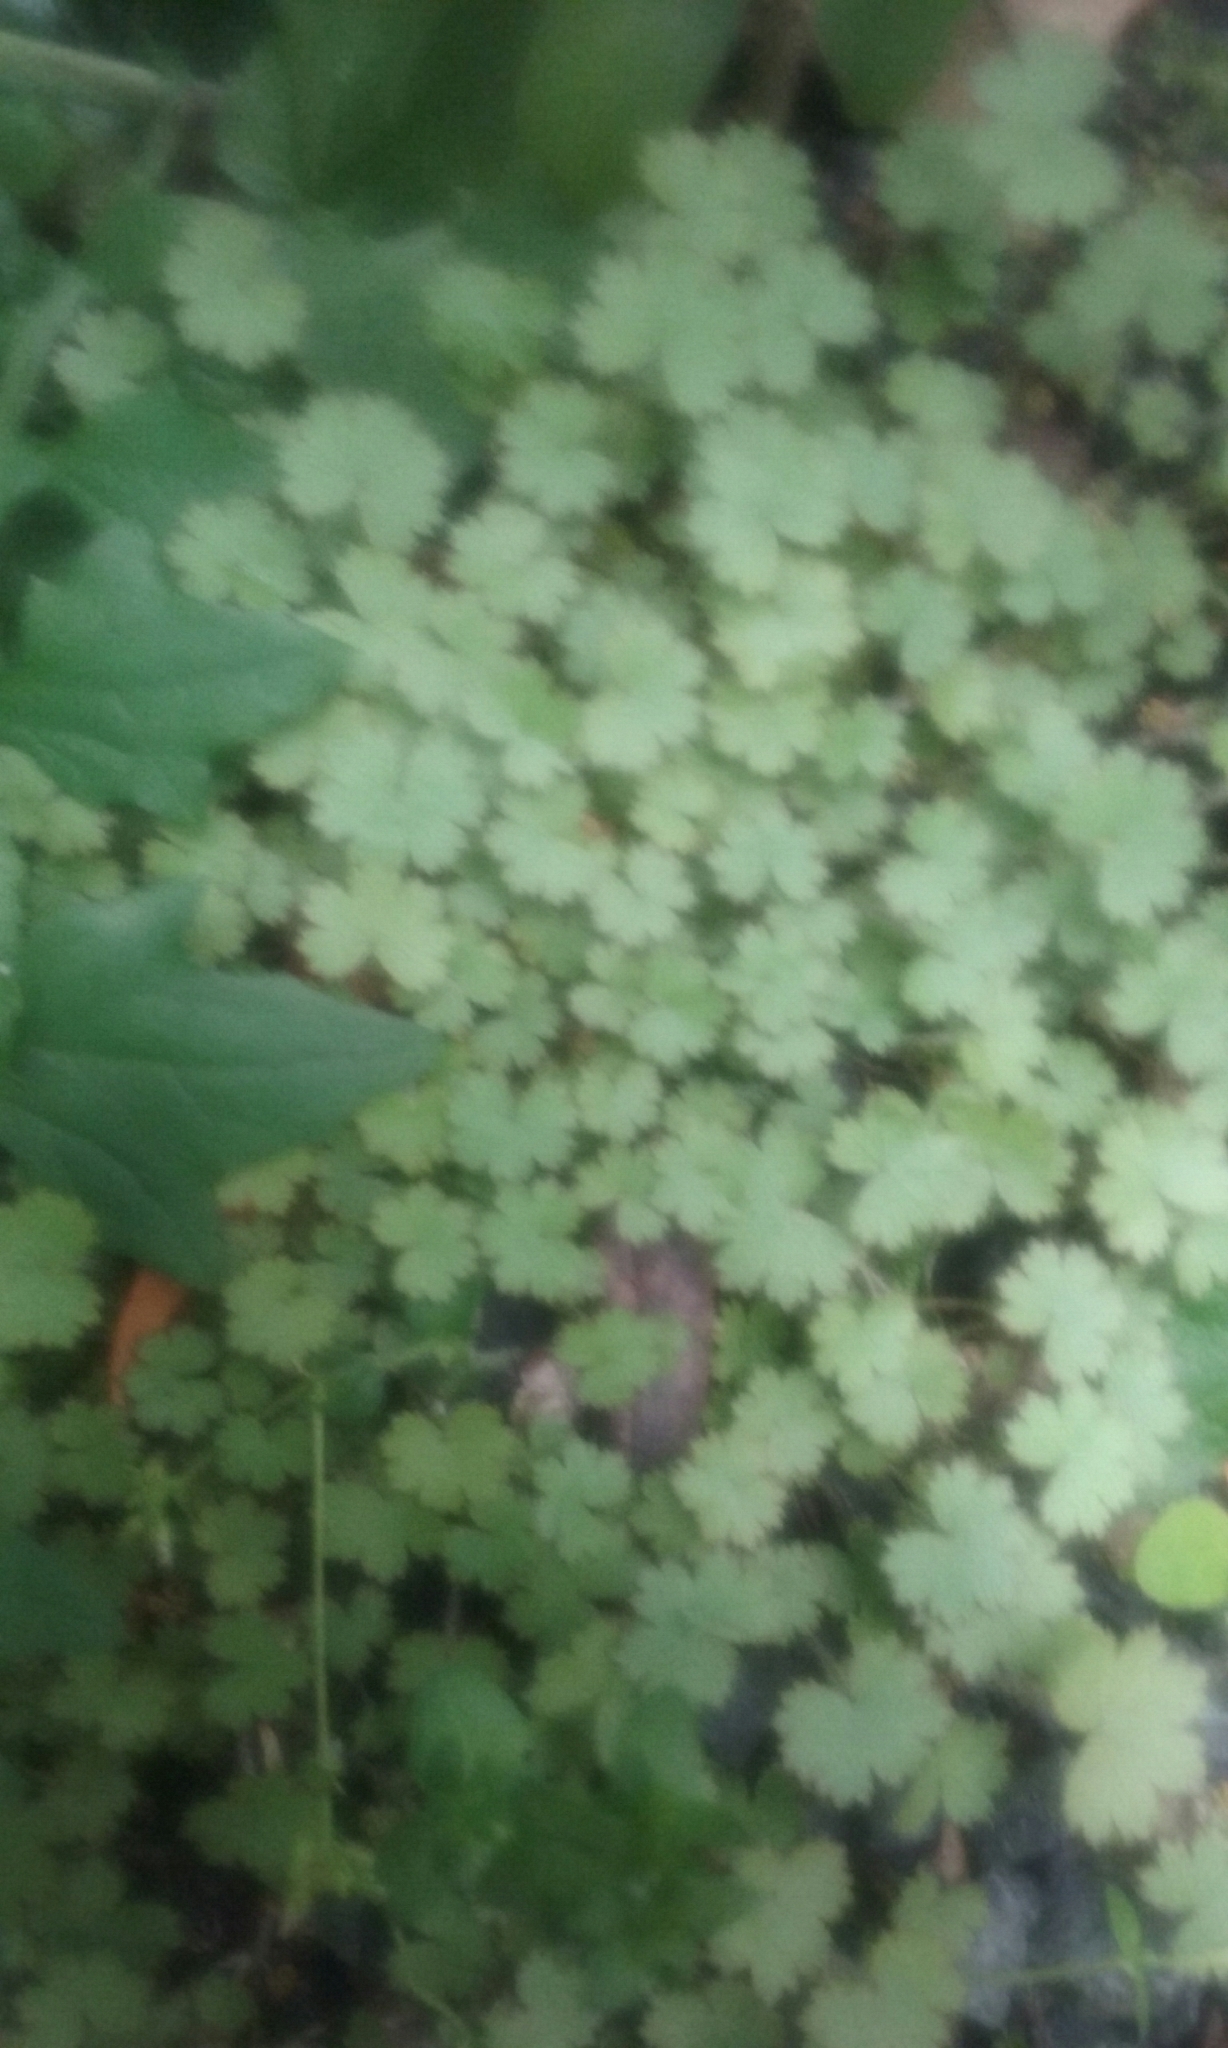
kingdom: Plantae
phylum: Tracheophyta
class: Magnoliopsida
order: Apiales
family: Araliaceae
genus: Hydrocotyle
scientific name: Hydrocotyle elongata
